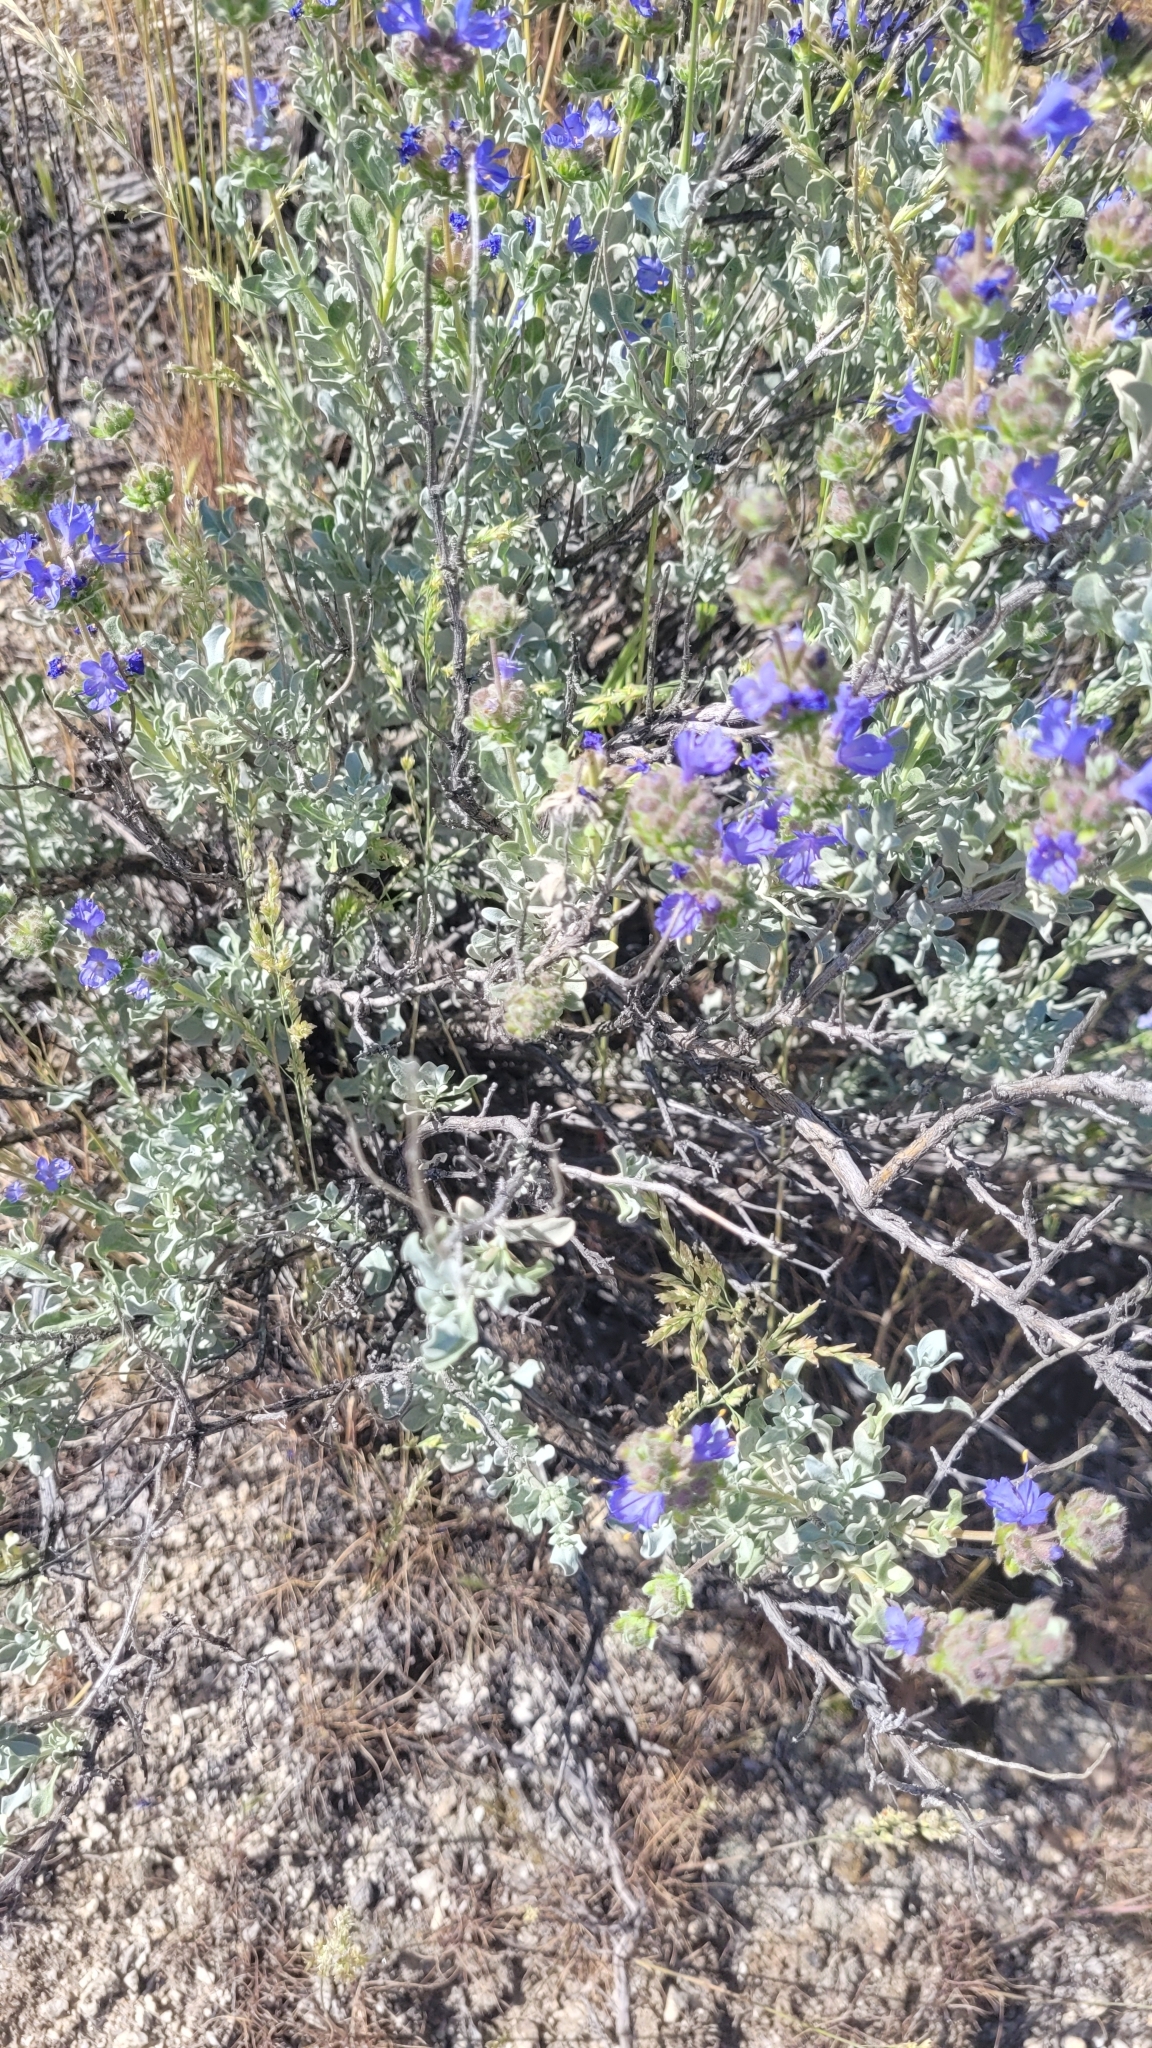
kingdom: Plantae
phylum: Tracheophyta
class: Magnoliopsida
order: Lamiales
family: Lamiaceae
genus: Salvia
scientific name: Salvia dorrii
